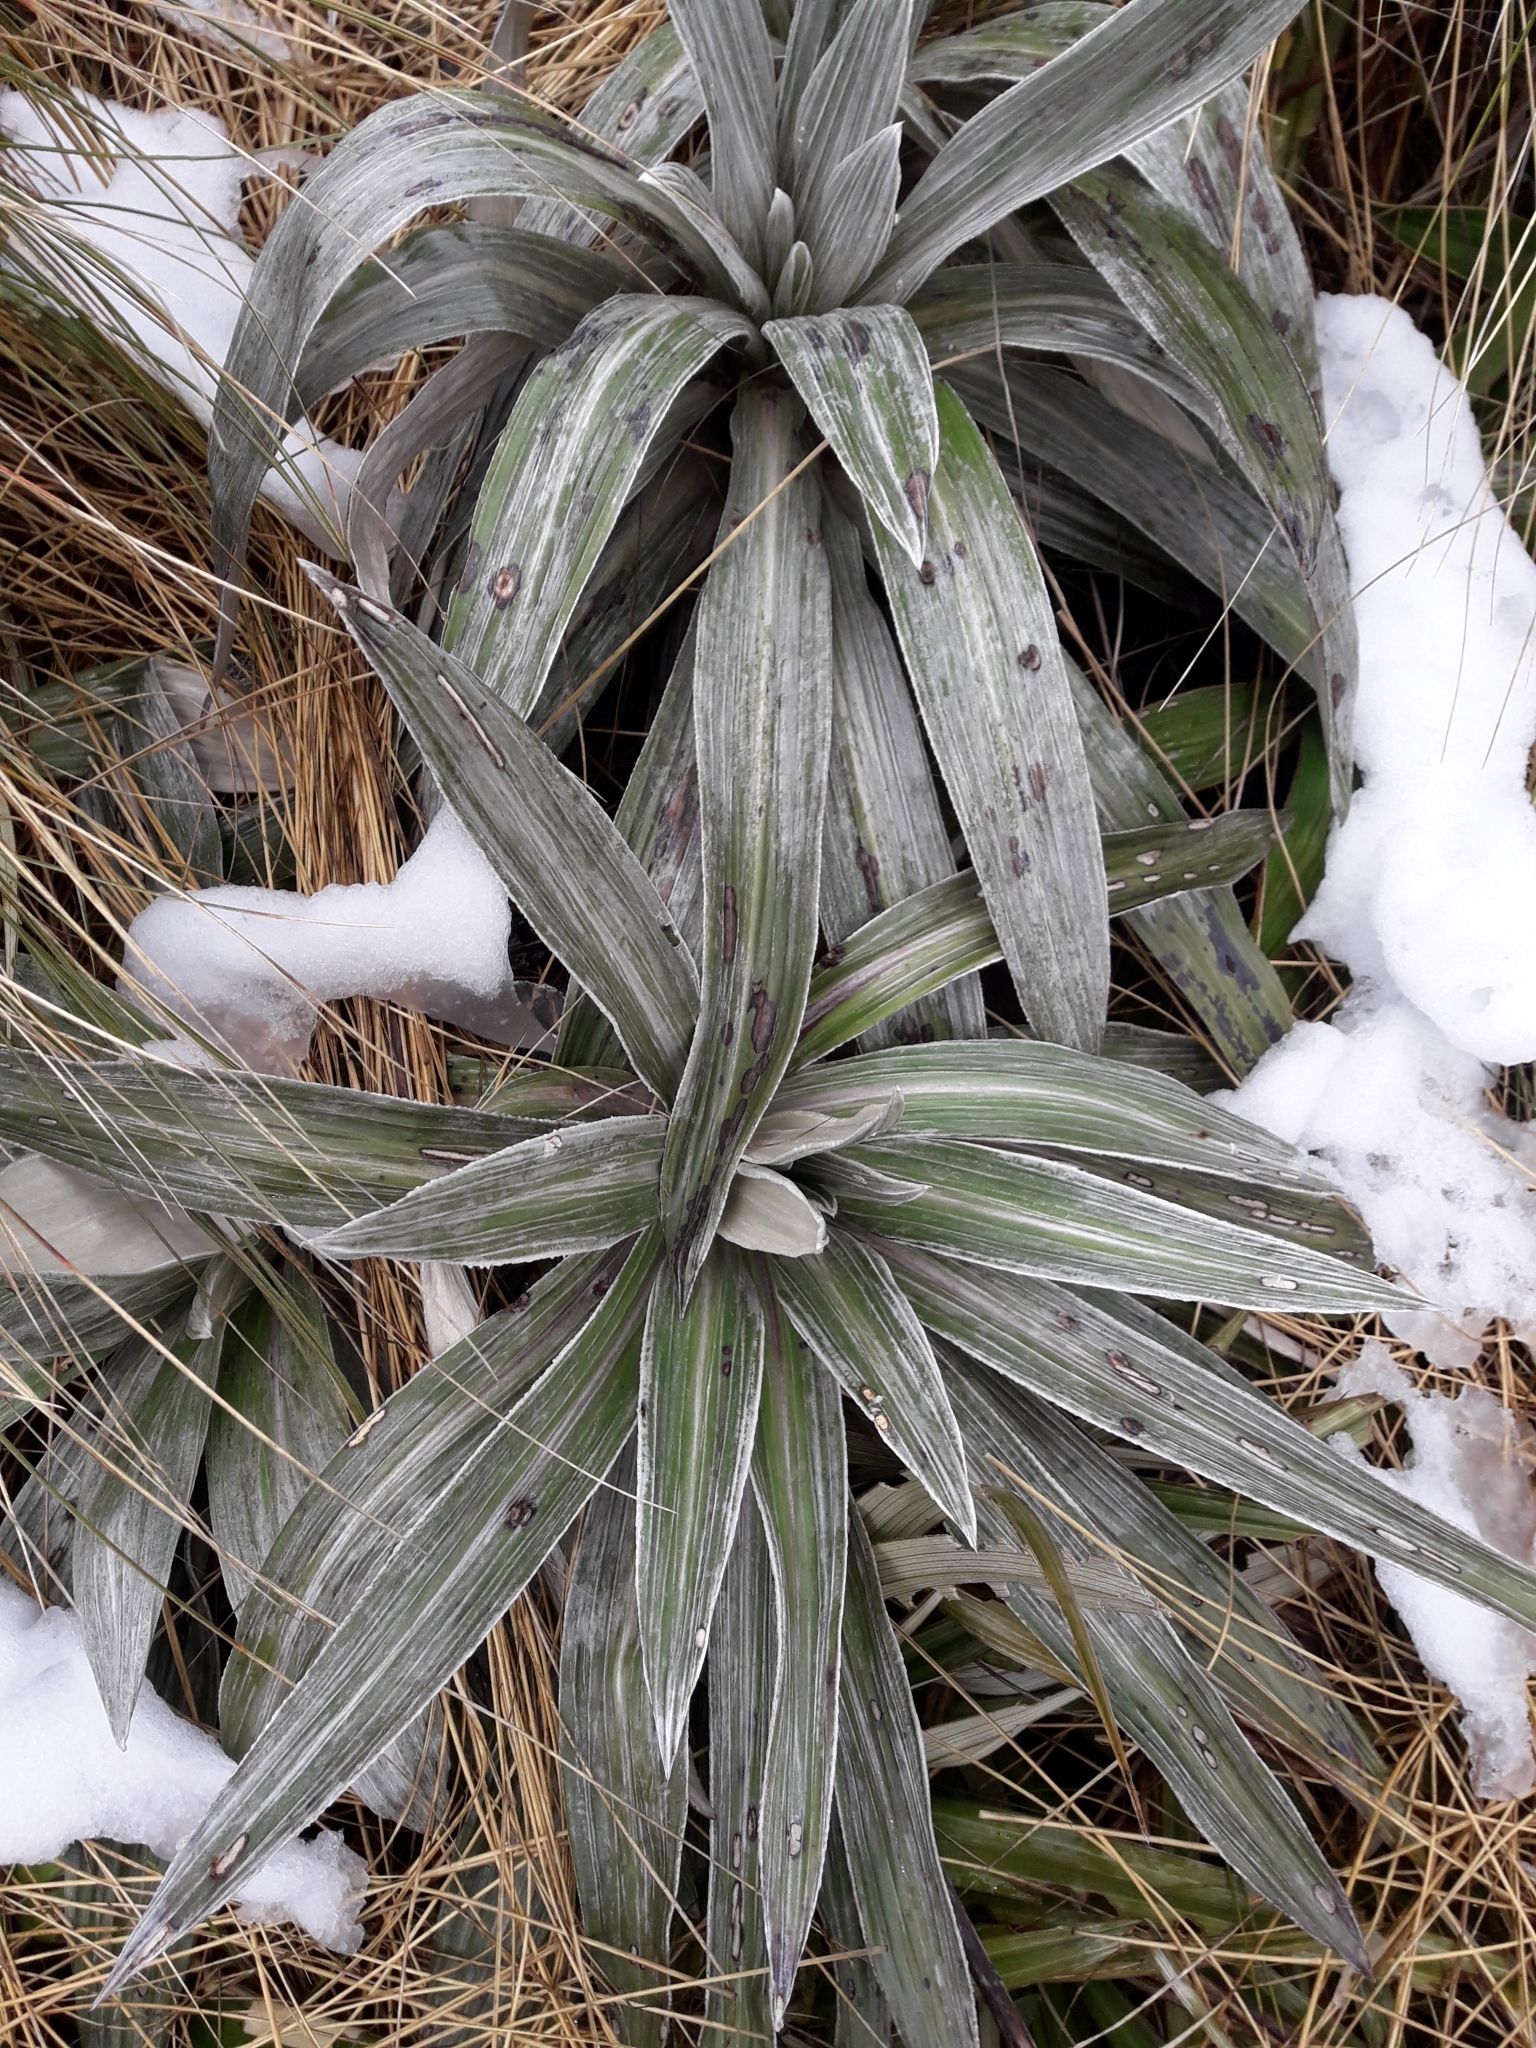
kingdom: Plantae
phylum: Tracheophyta
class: Magnoliopsida
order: Asterales
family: Asteraceae
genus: Celmisia
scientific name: Celmisia semicordata
